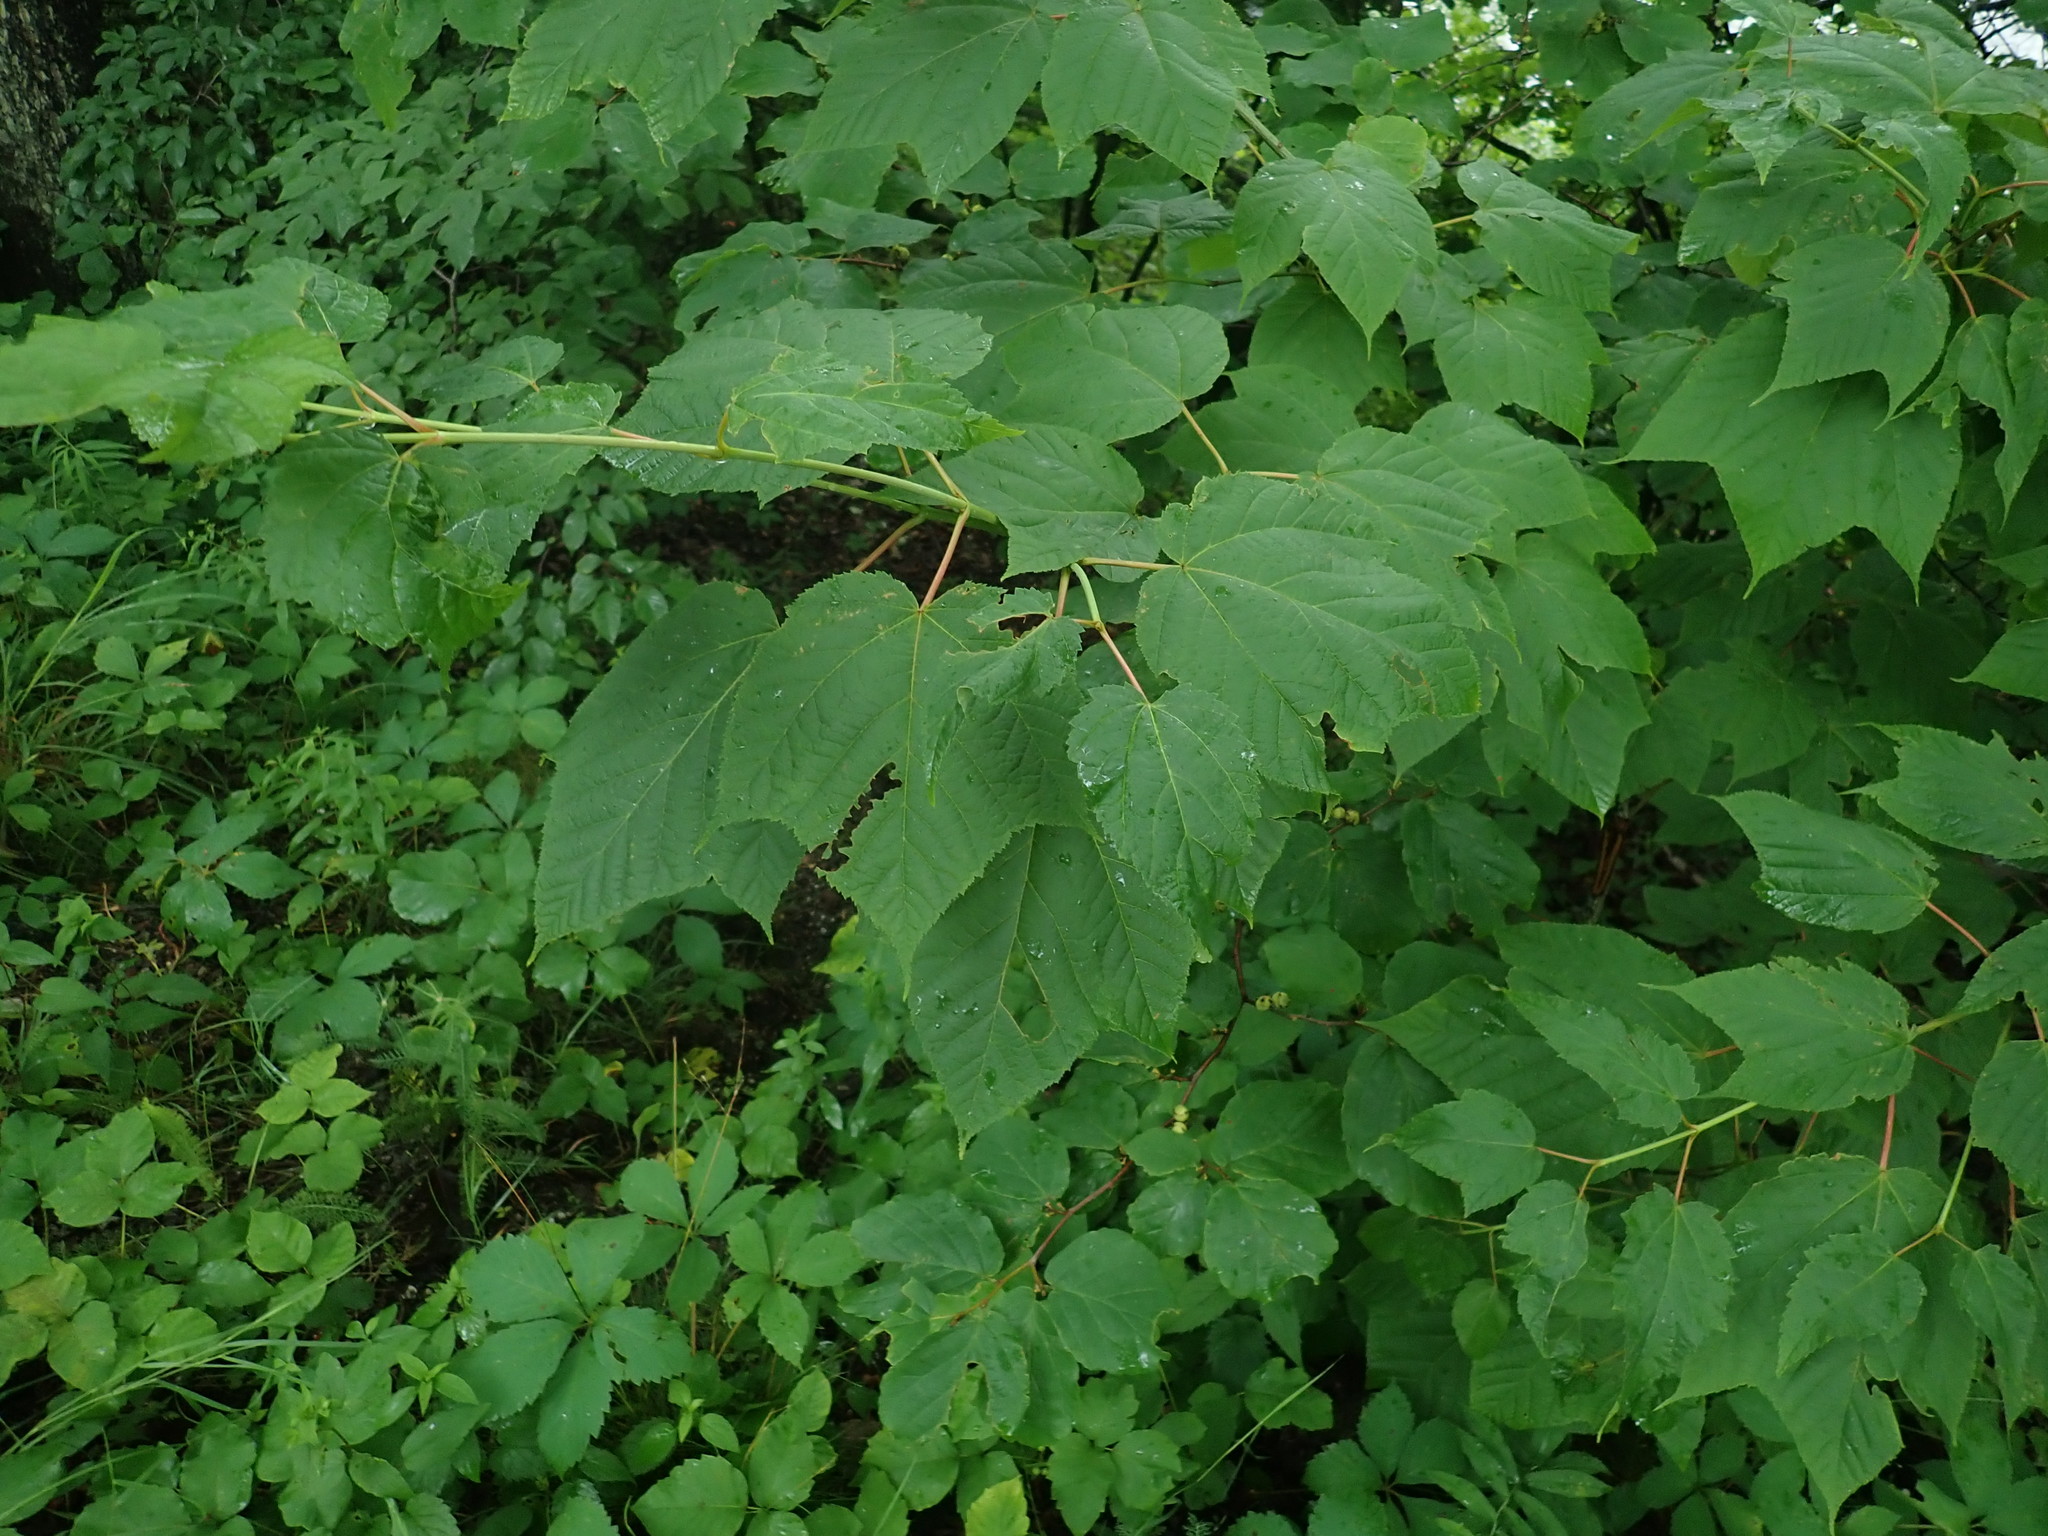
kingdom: Plantae
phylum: Tracheophyta
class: Magnoliopsida
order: Sapindales
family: Sapindaceae
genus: Acer
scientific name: Acer pensylvanicum
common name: Moosewood
